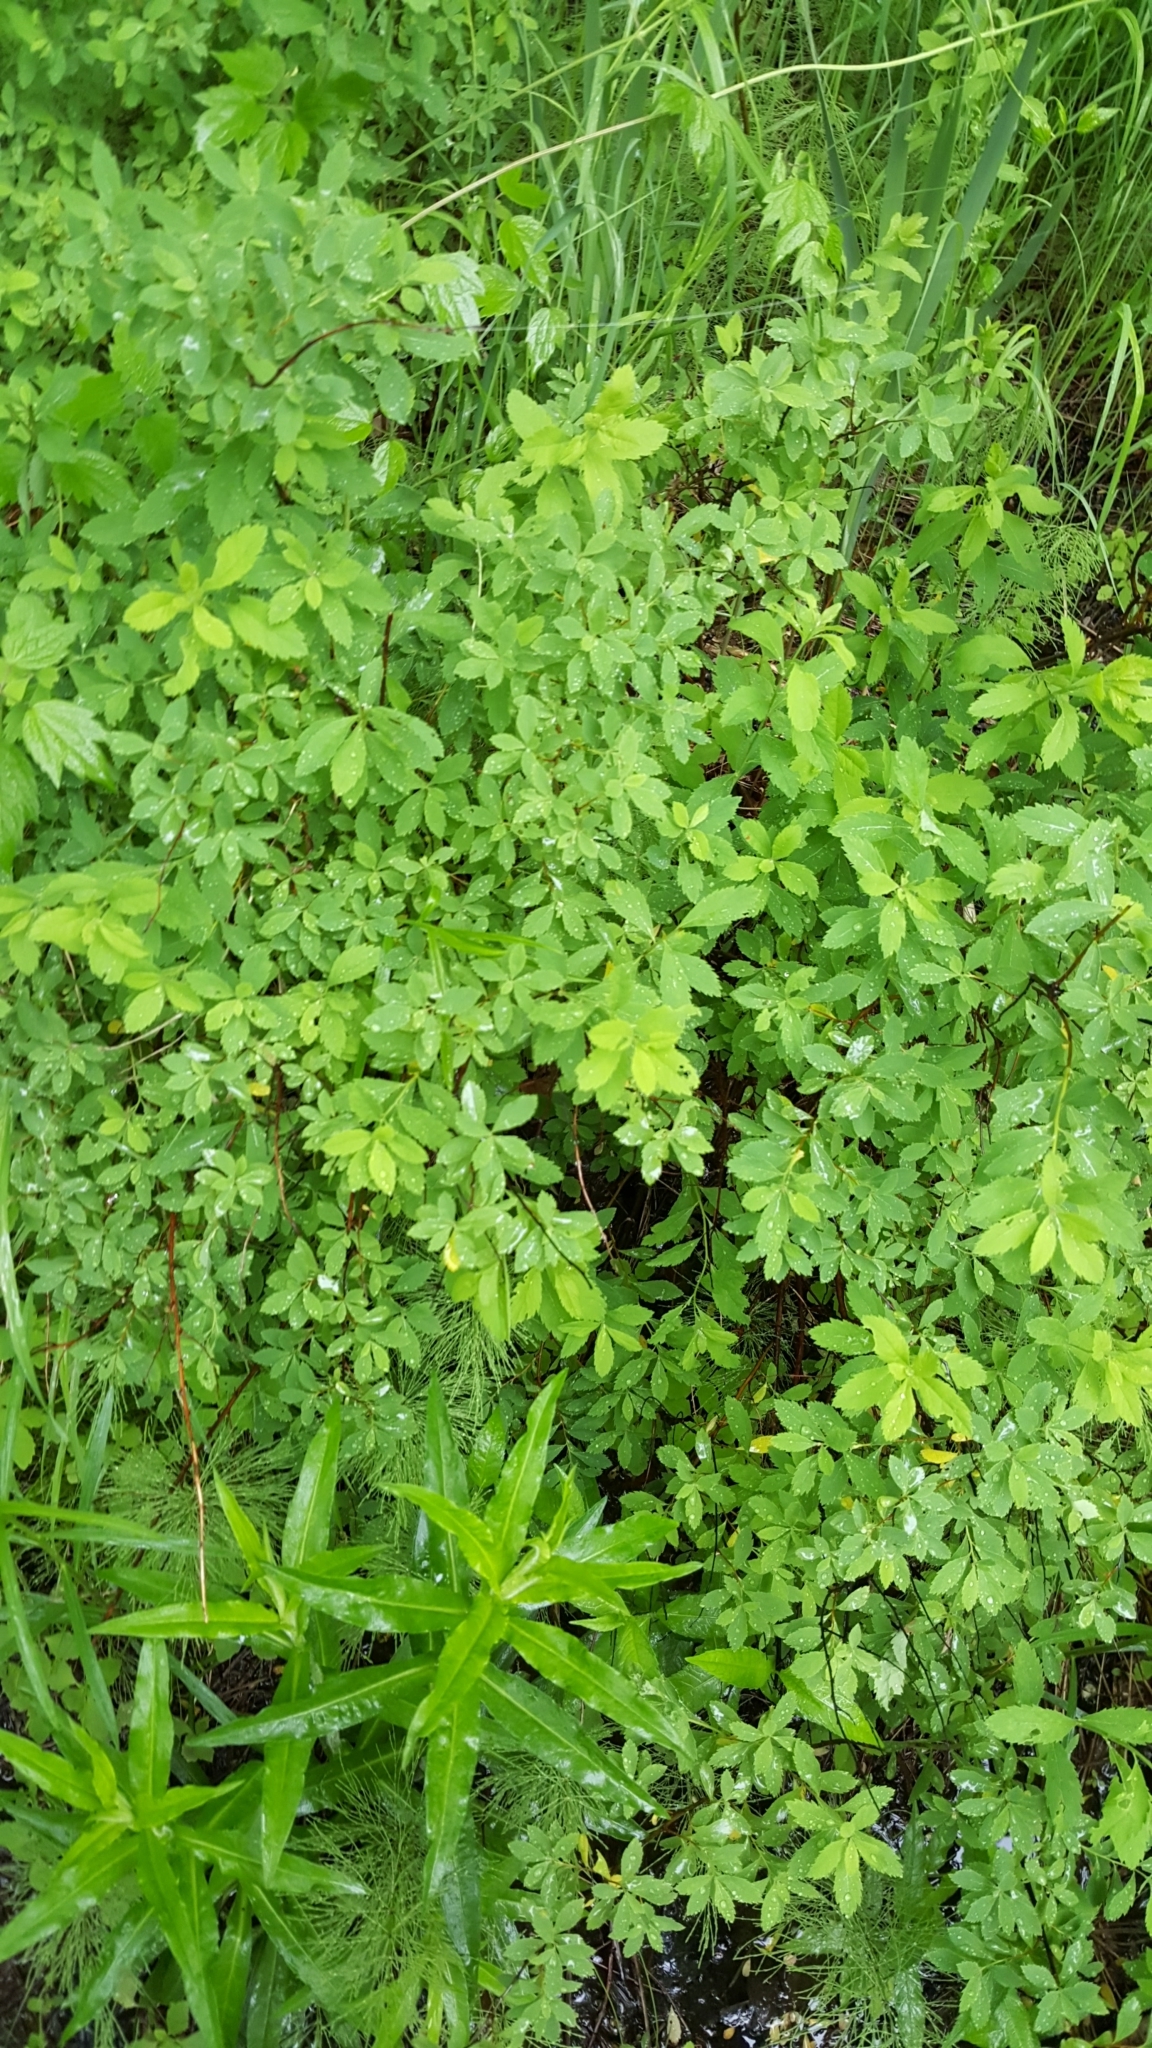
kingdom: Plantae
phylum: Tracheophyta
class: Magnoliopsida
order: Rosales
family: Rosaceae
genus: Spiraea
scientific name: Spiraea alba
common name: Pale bridewort
